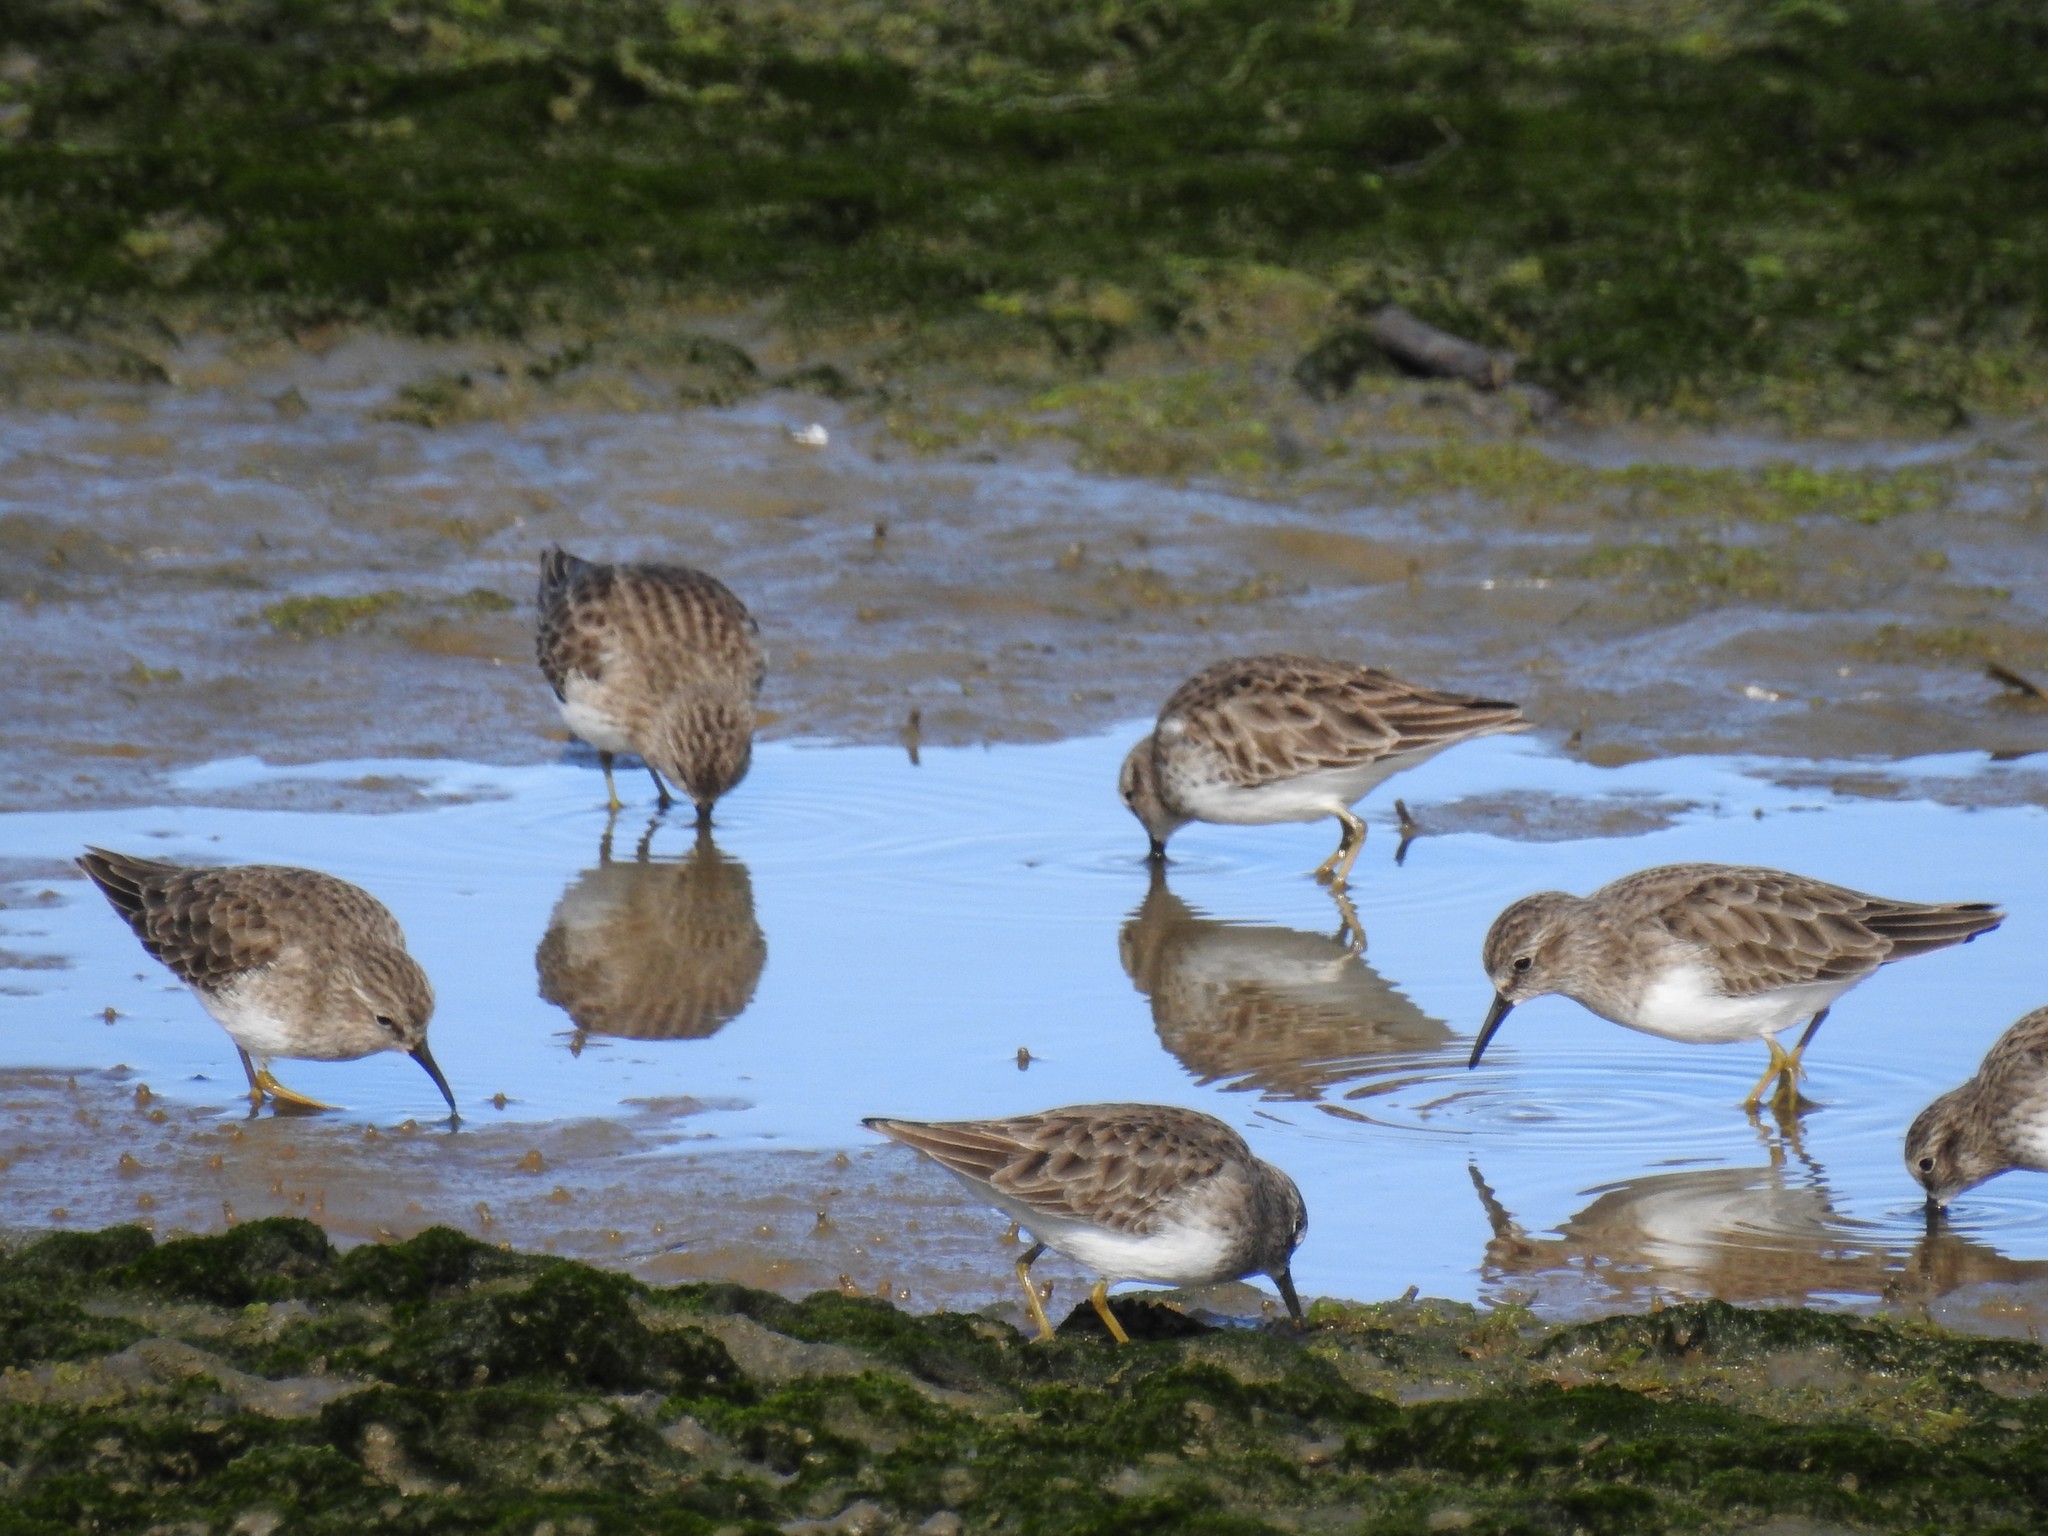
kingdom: Animalia
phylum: Chordata
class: Aves
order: Charadriiformes
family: Scolopacidae
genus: Calidris
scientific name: Calidris minutilla
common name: Least sandpiper
